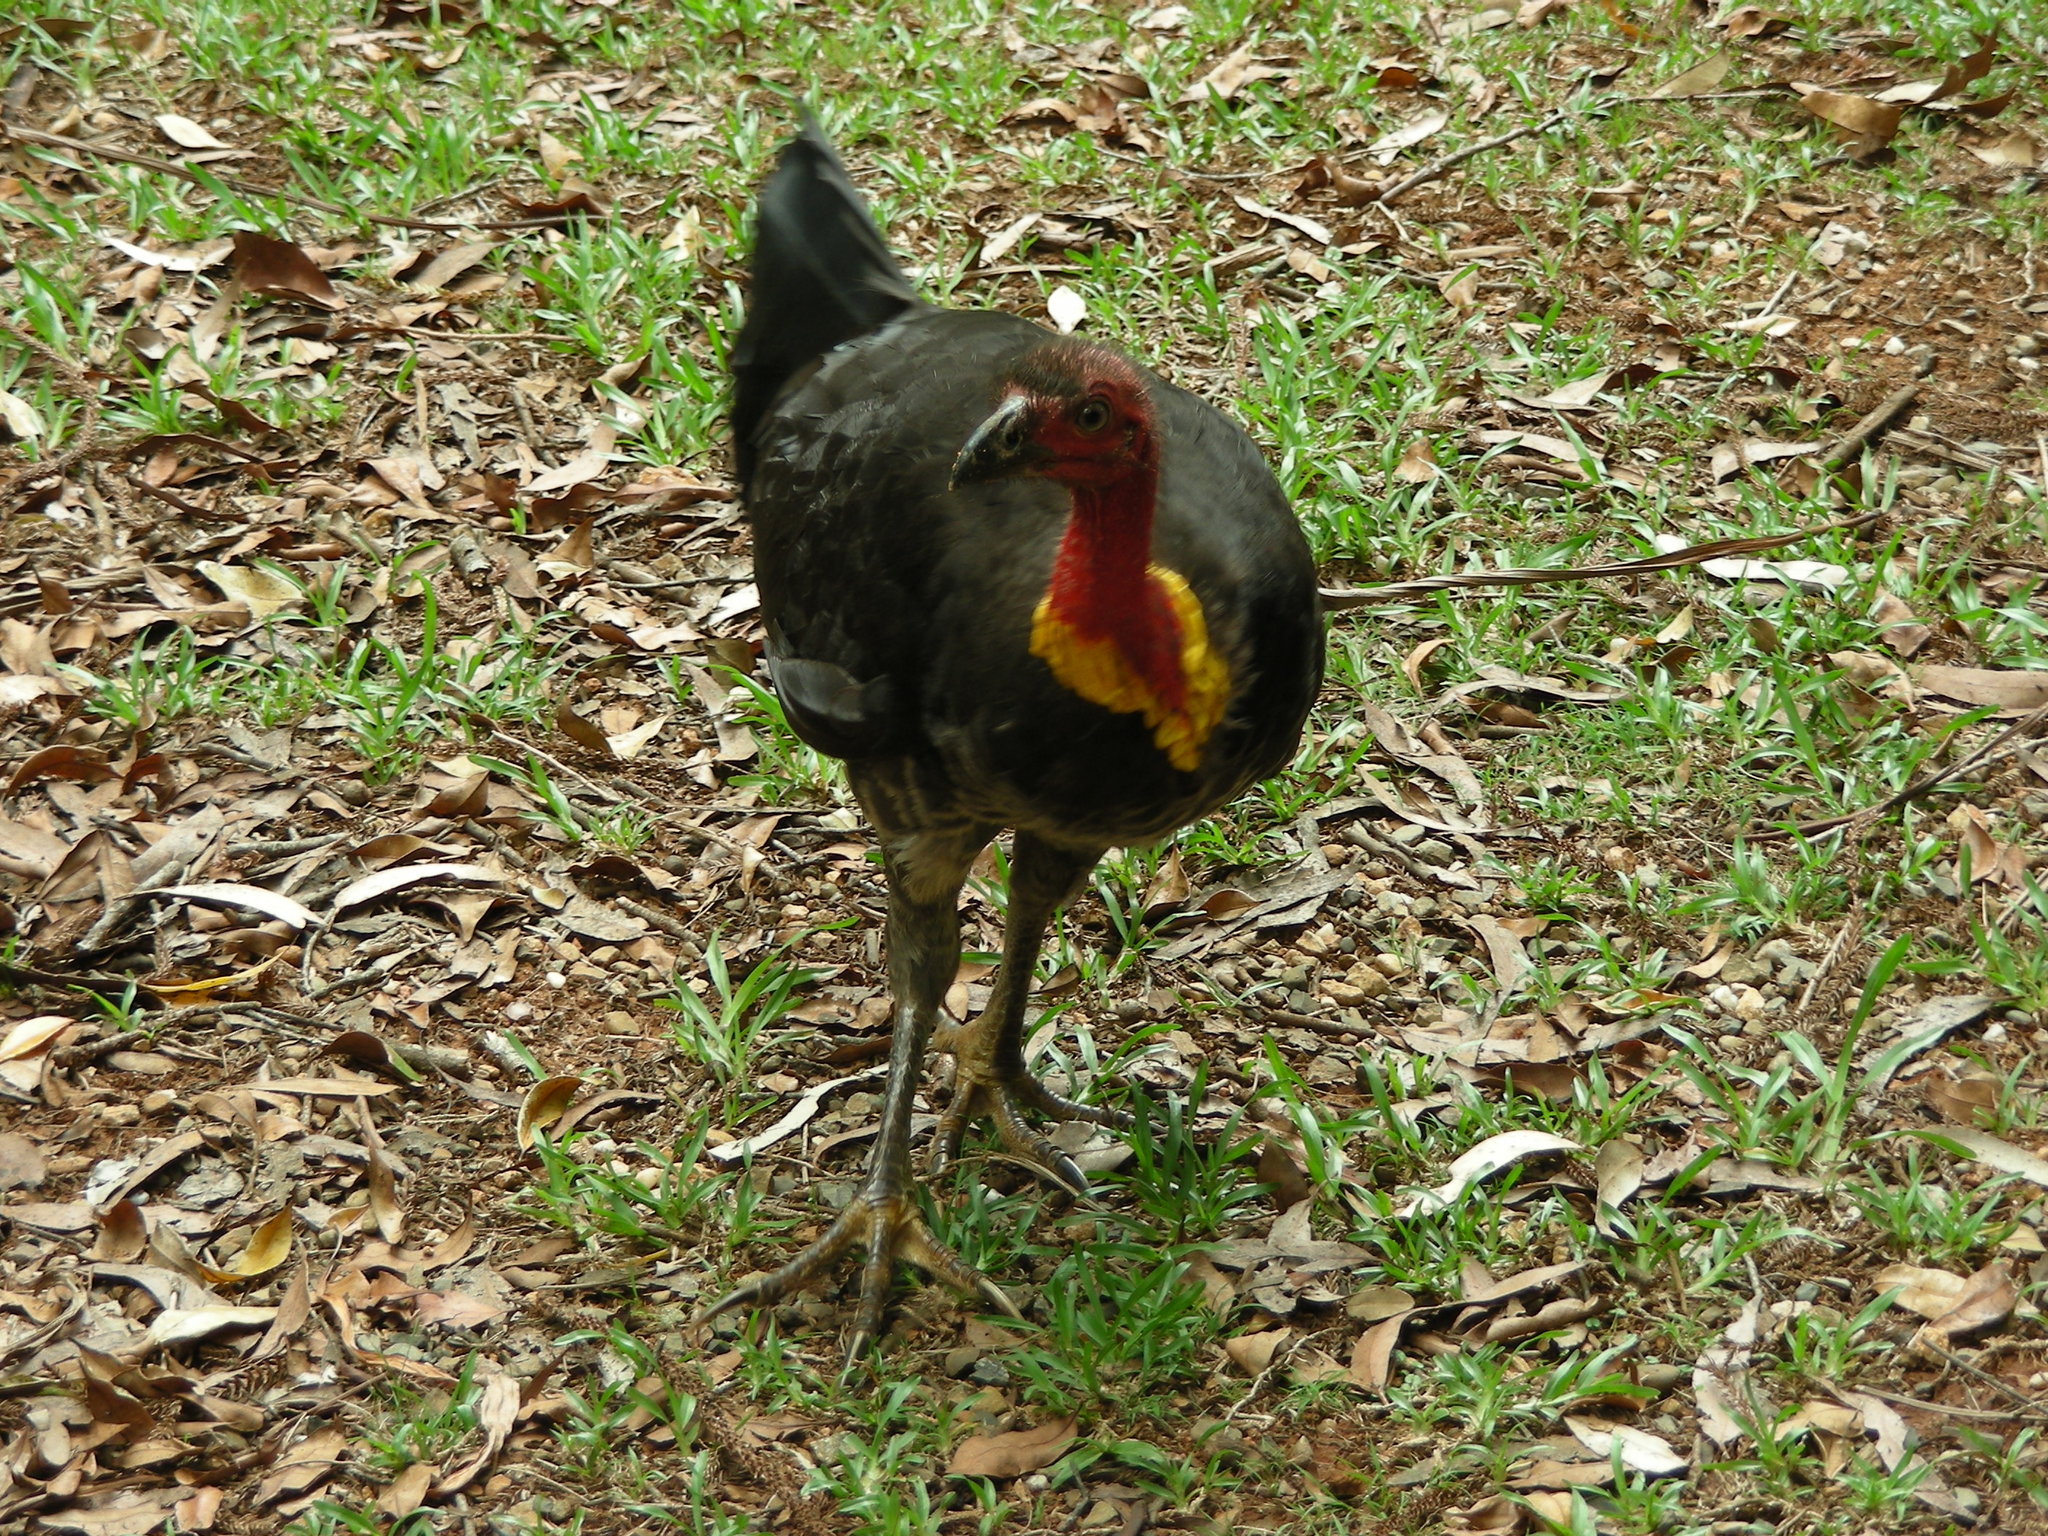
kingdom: Animalia
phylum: Chordata
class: Aves
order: Galliformes
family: Megapodiidae
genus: Alectura
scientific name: Alectura lathami
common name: Australian brushturkey
